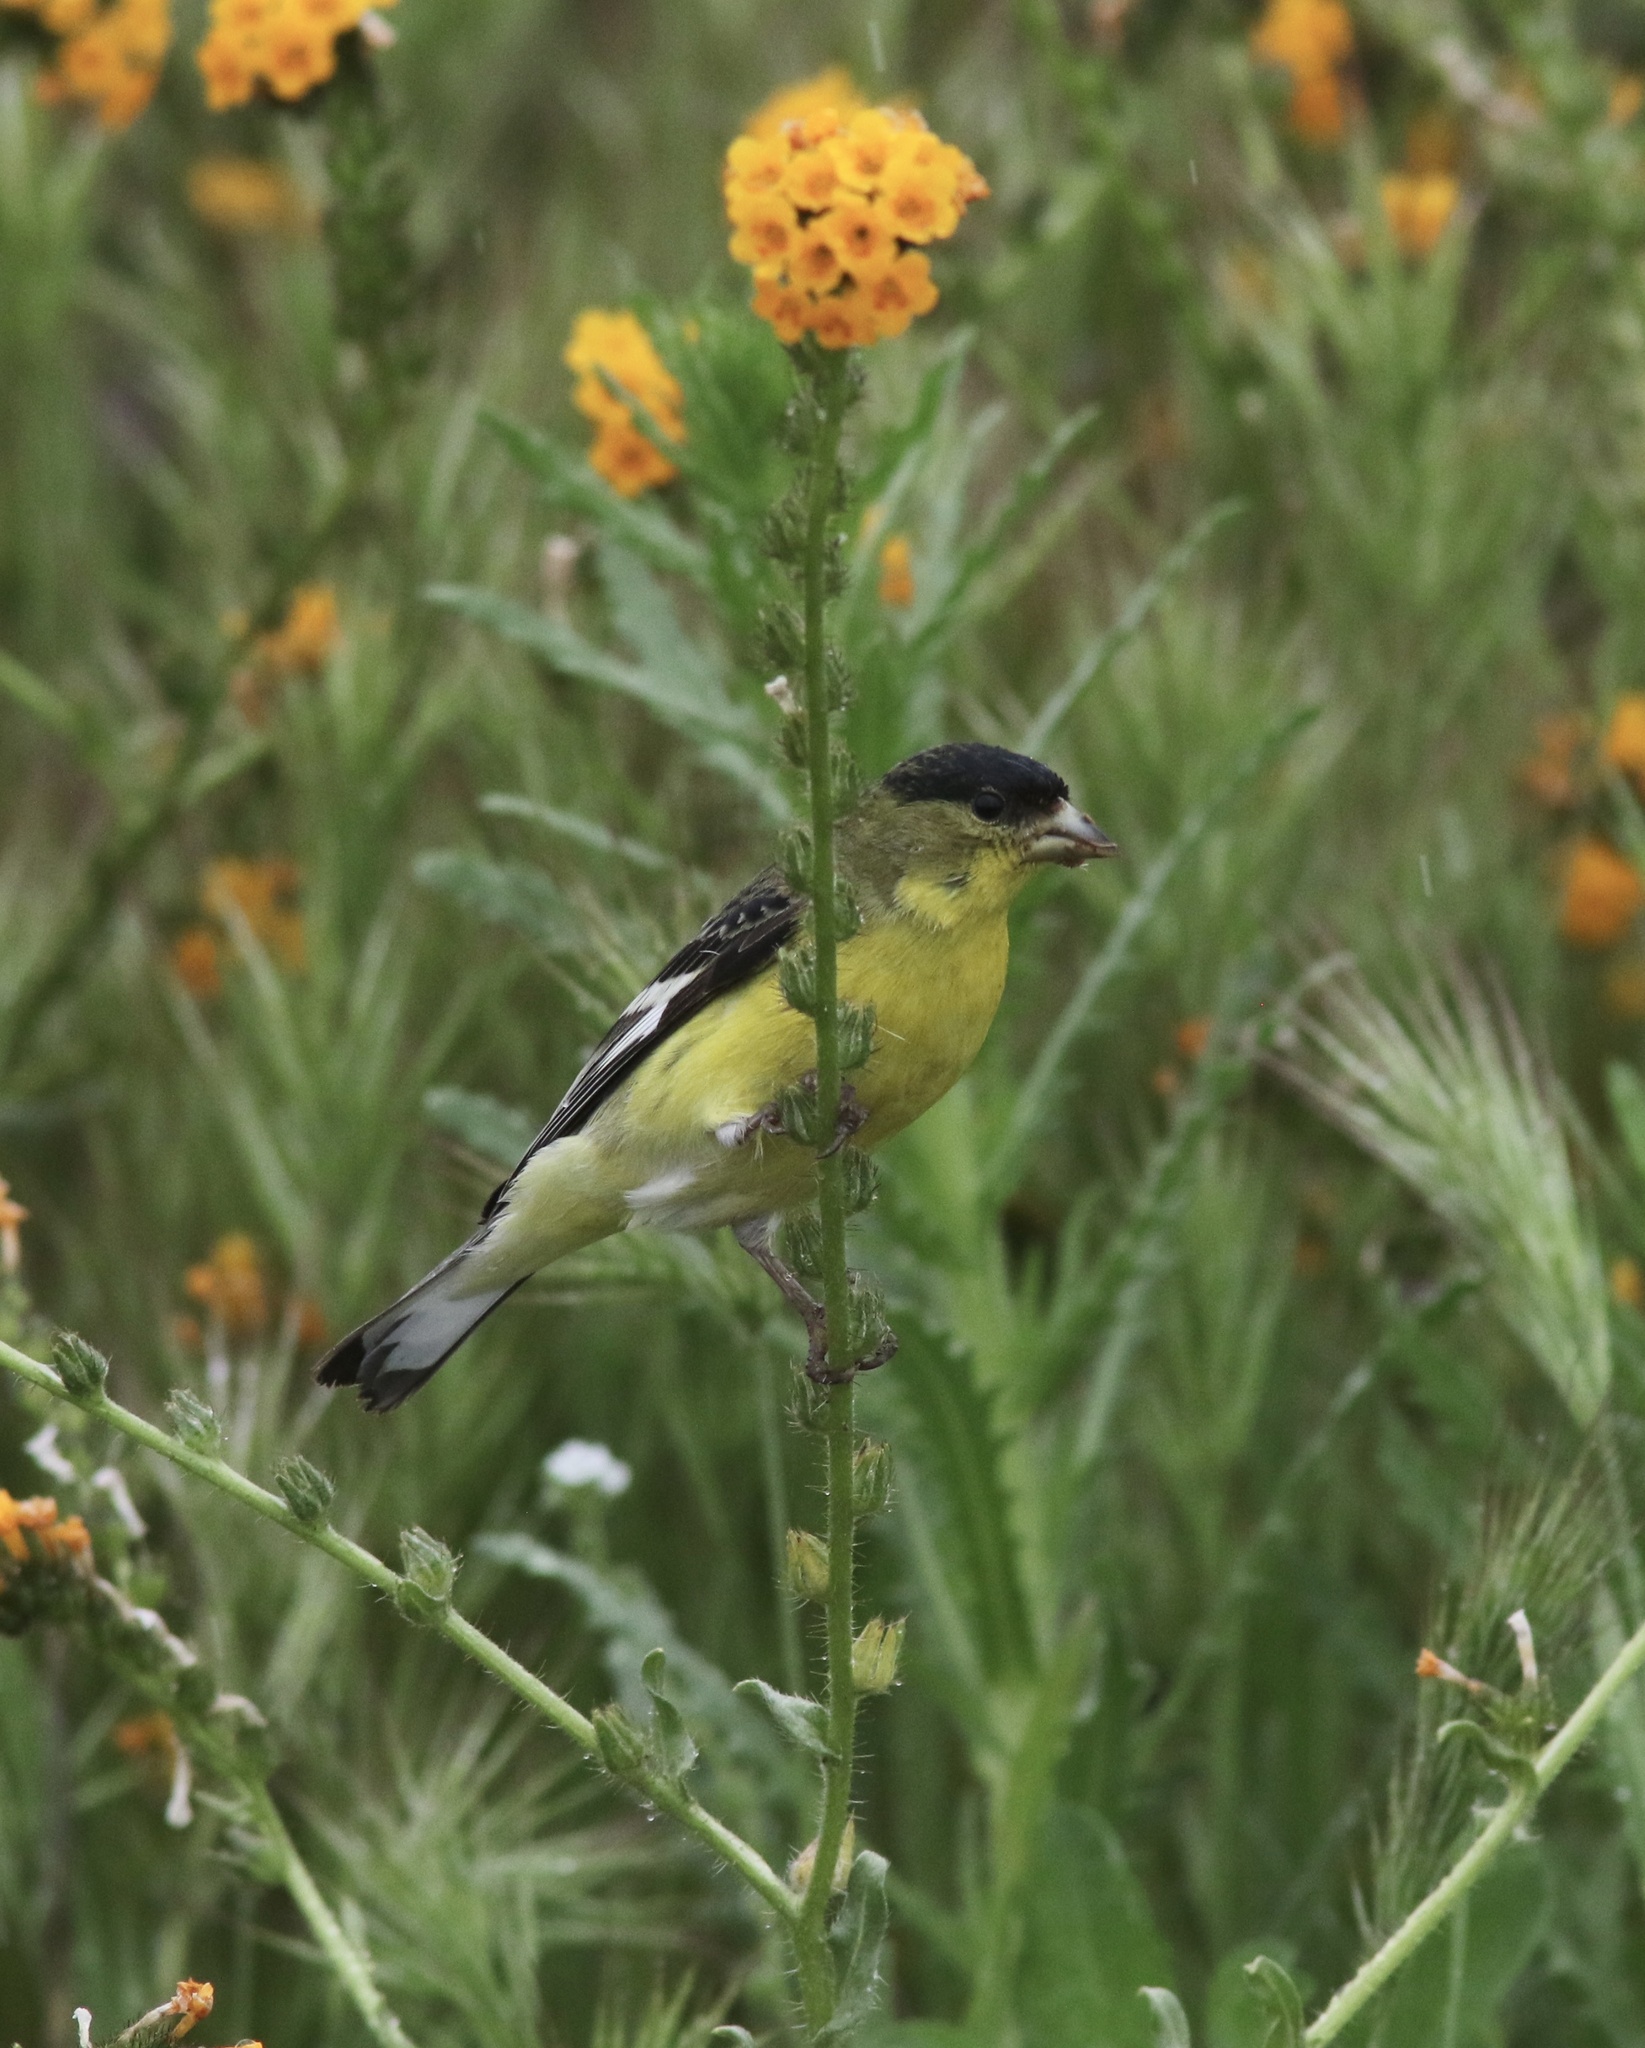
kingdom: Animalia
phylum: Chordata
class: Aves
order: Passeriformes
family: Fringillidae
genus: Spinus
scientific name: Spinus psaltria
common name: Lesser goldfinch
